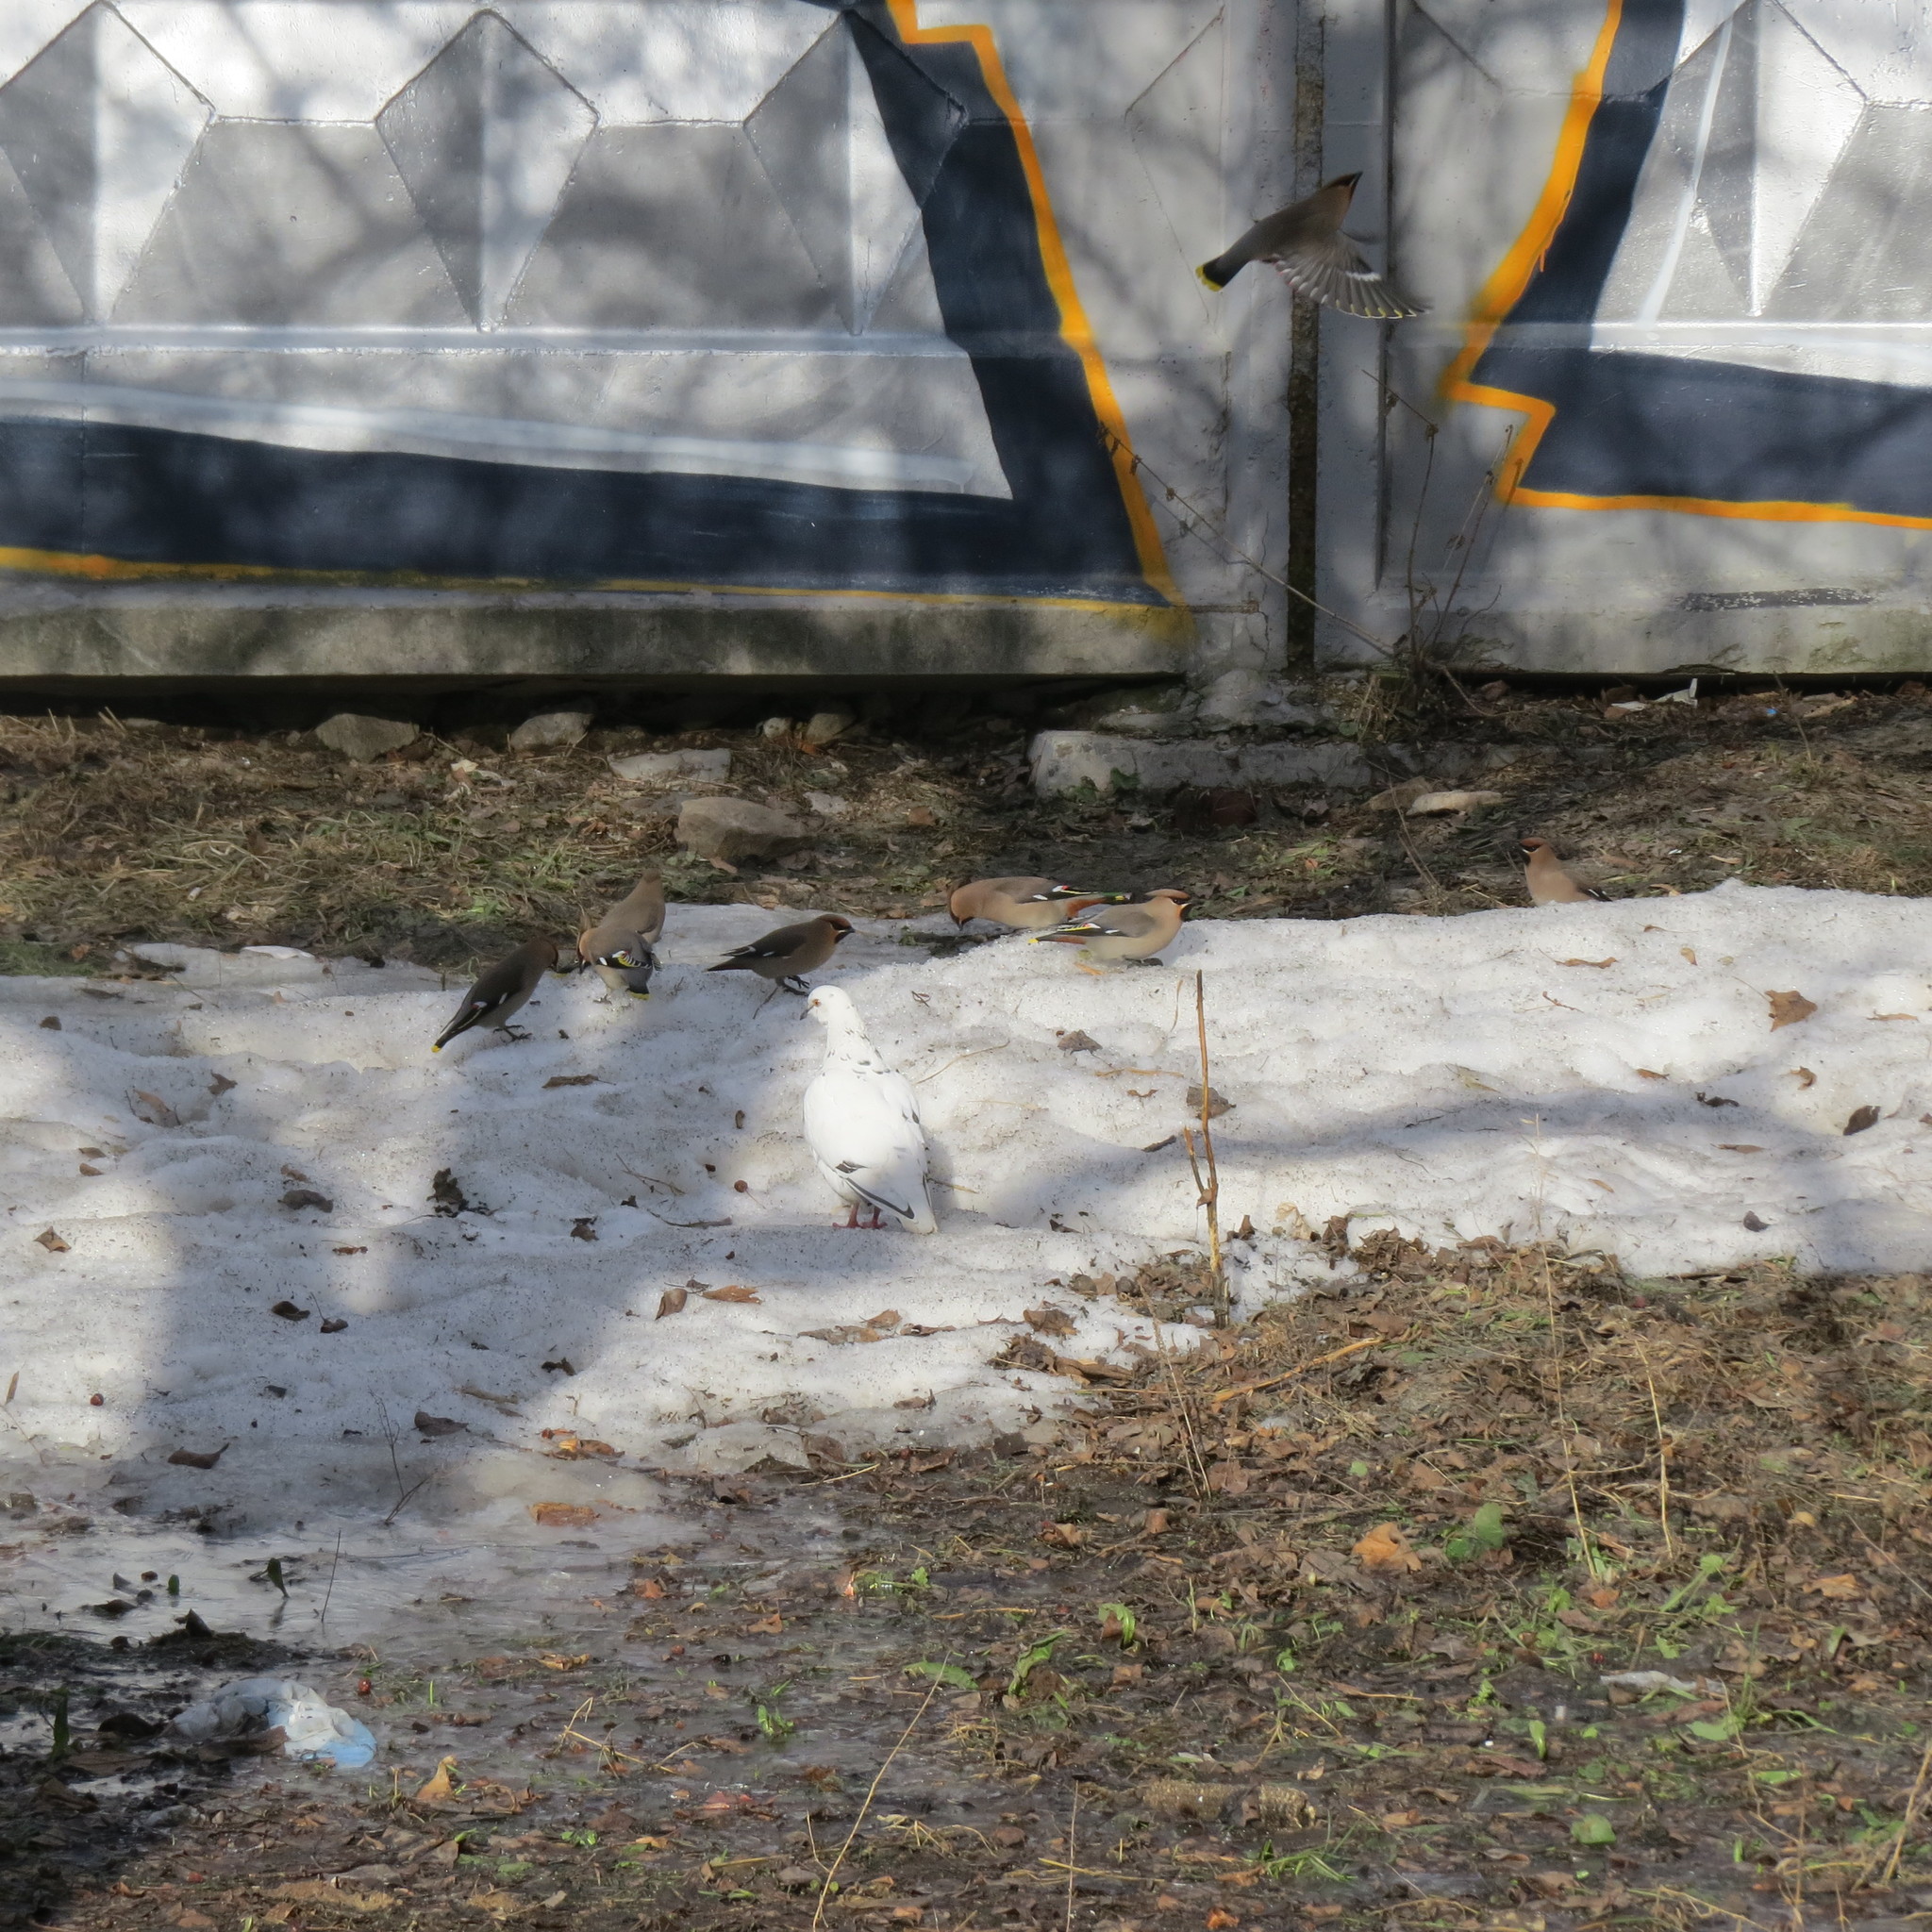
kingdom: Animalia
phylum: Chordata
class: Aves
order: Passeriformes
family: Bombycillidae
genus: Bombycilla
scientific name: Bombycilla garrulus
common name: Bohemian waxwing
